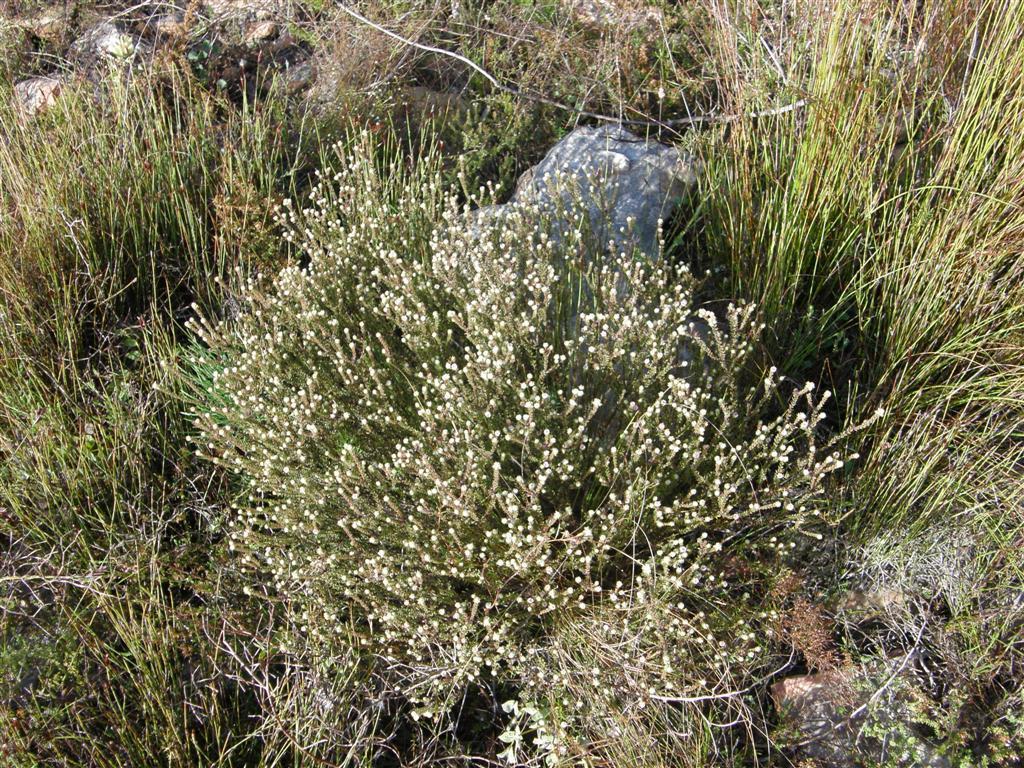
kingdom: Plantae
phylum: Tracheophyta
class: Magnoliopsida
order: Bruniales
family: Bruniaceae
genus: Staavia
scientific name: Staavia capitella
